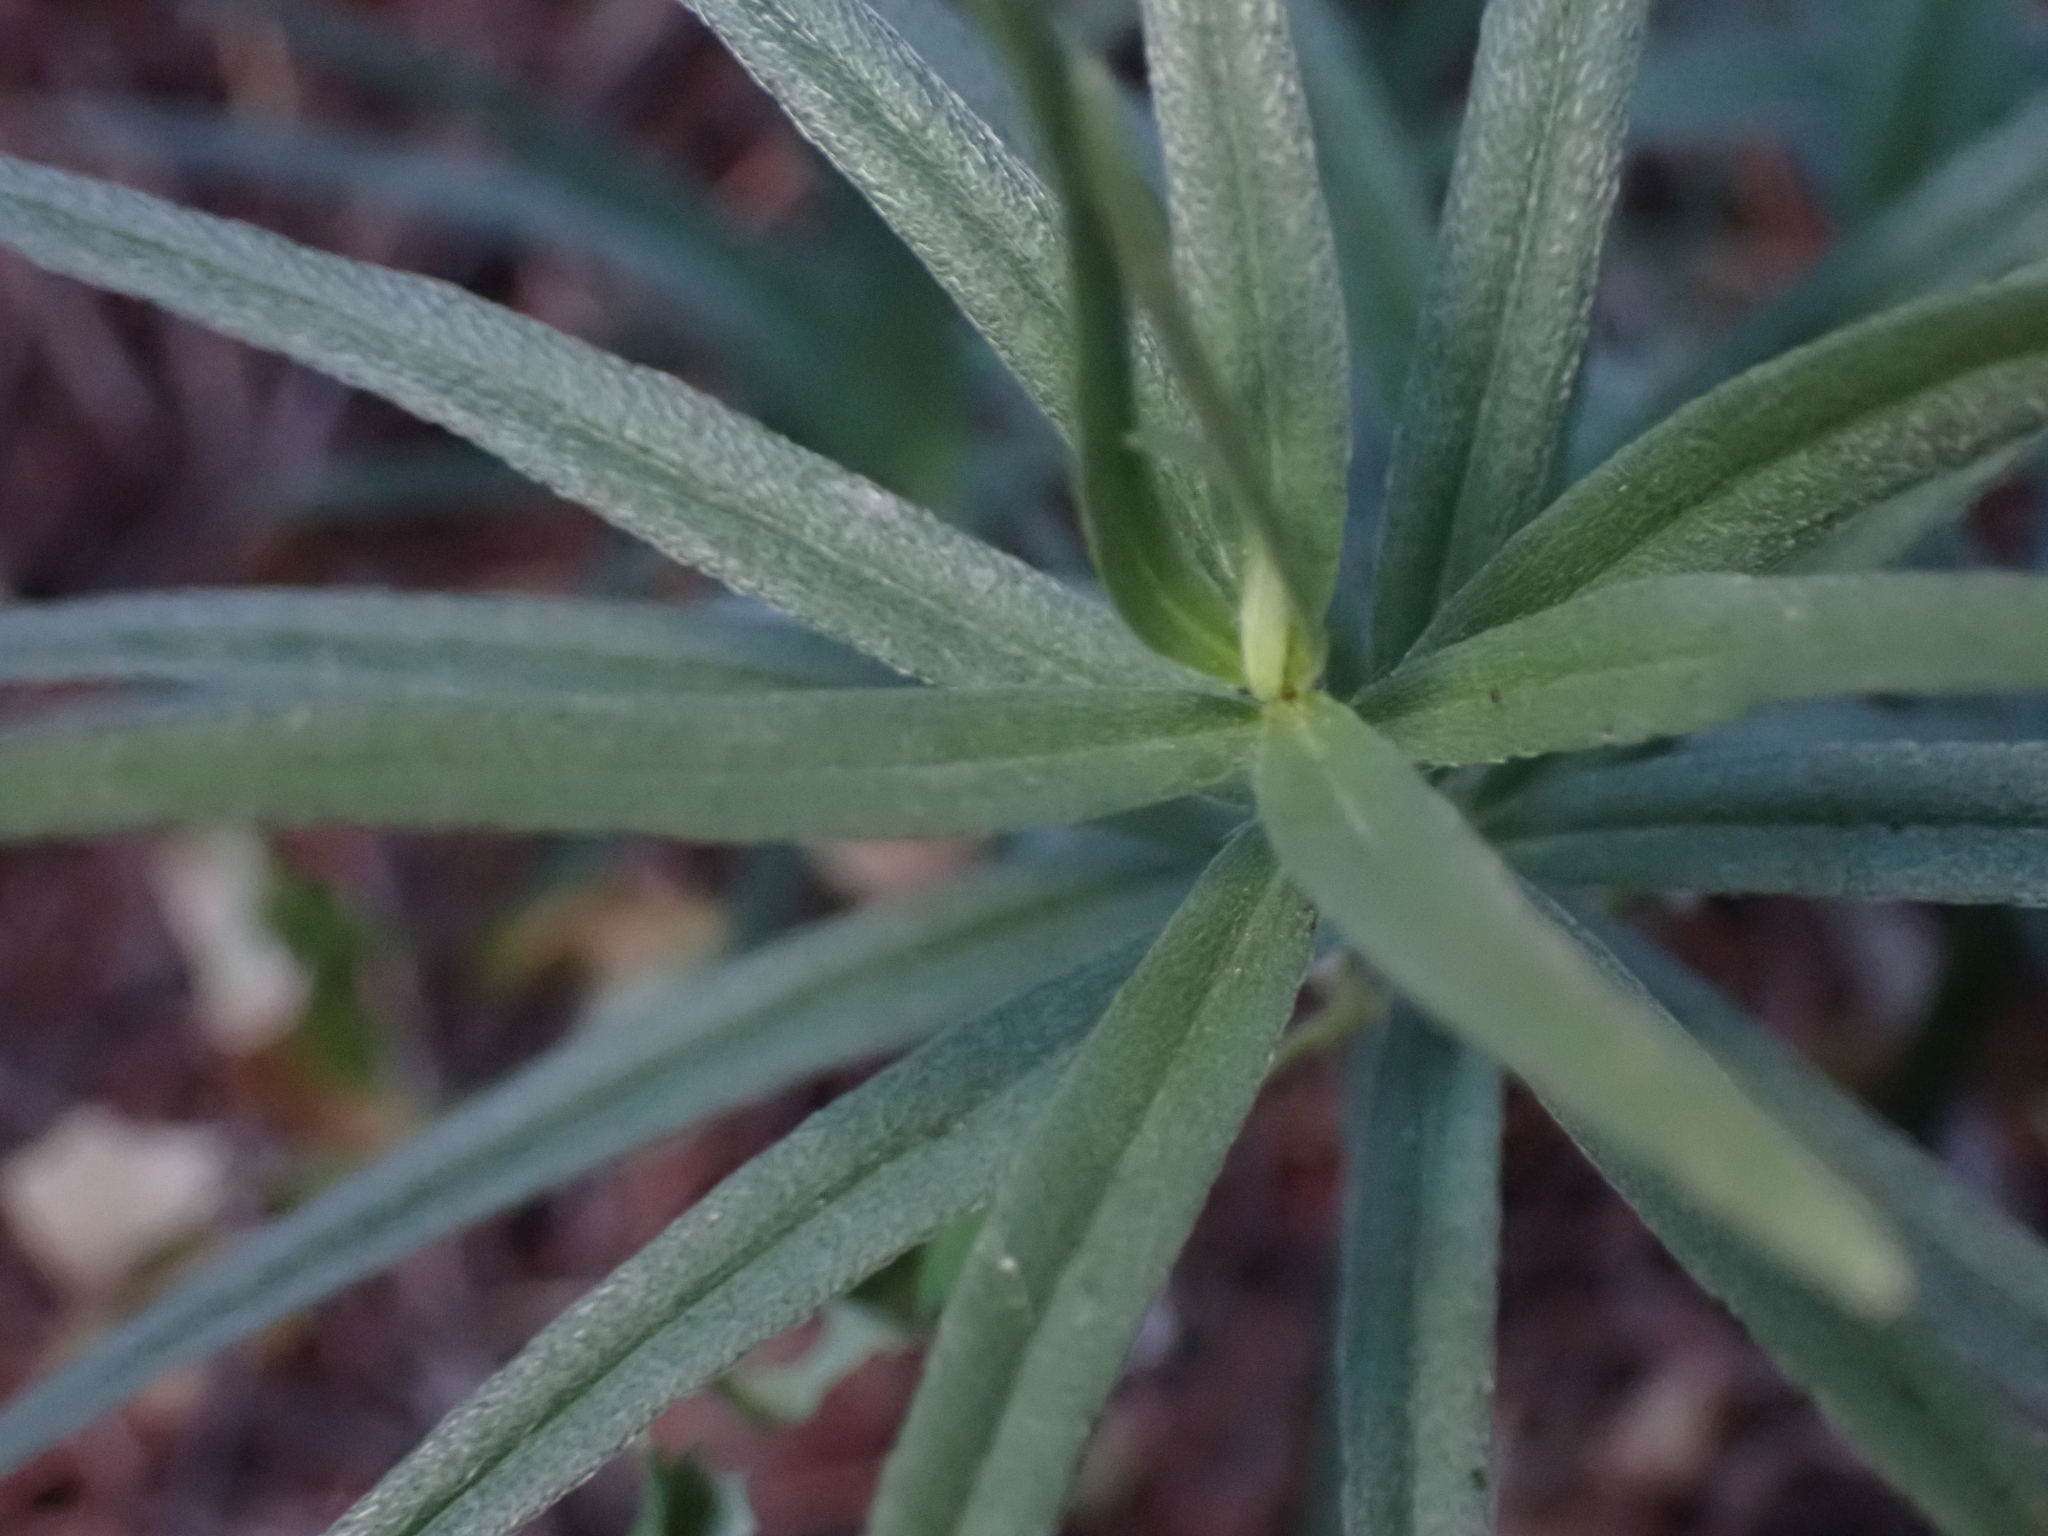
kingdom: Plantae
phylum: Tracheophyta
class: Magnoliopsida
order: Boraginales
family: Boraginaceae
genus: Lithospermum
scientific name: Lithospermum ruderale
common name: Western gromwell
